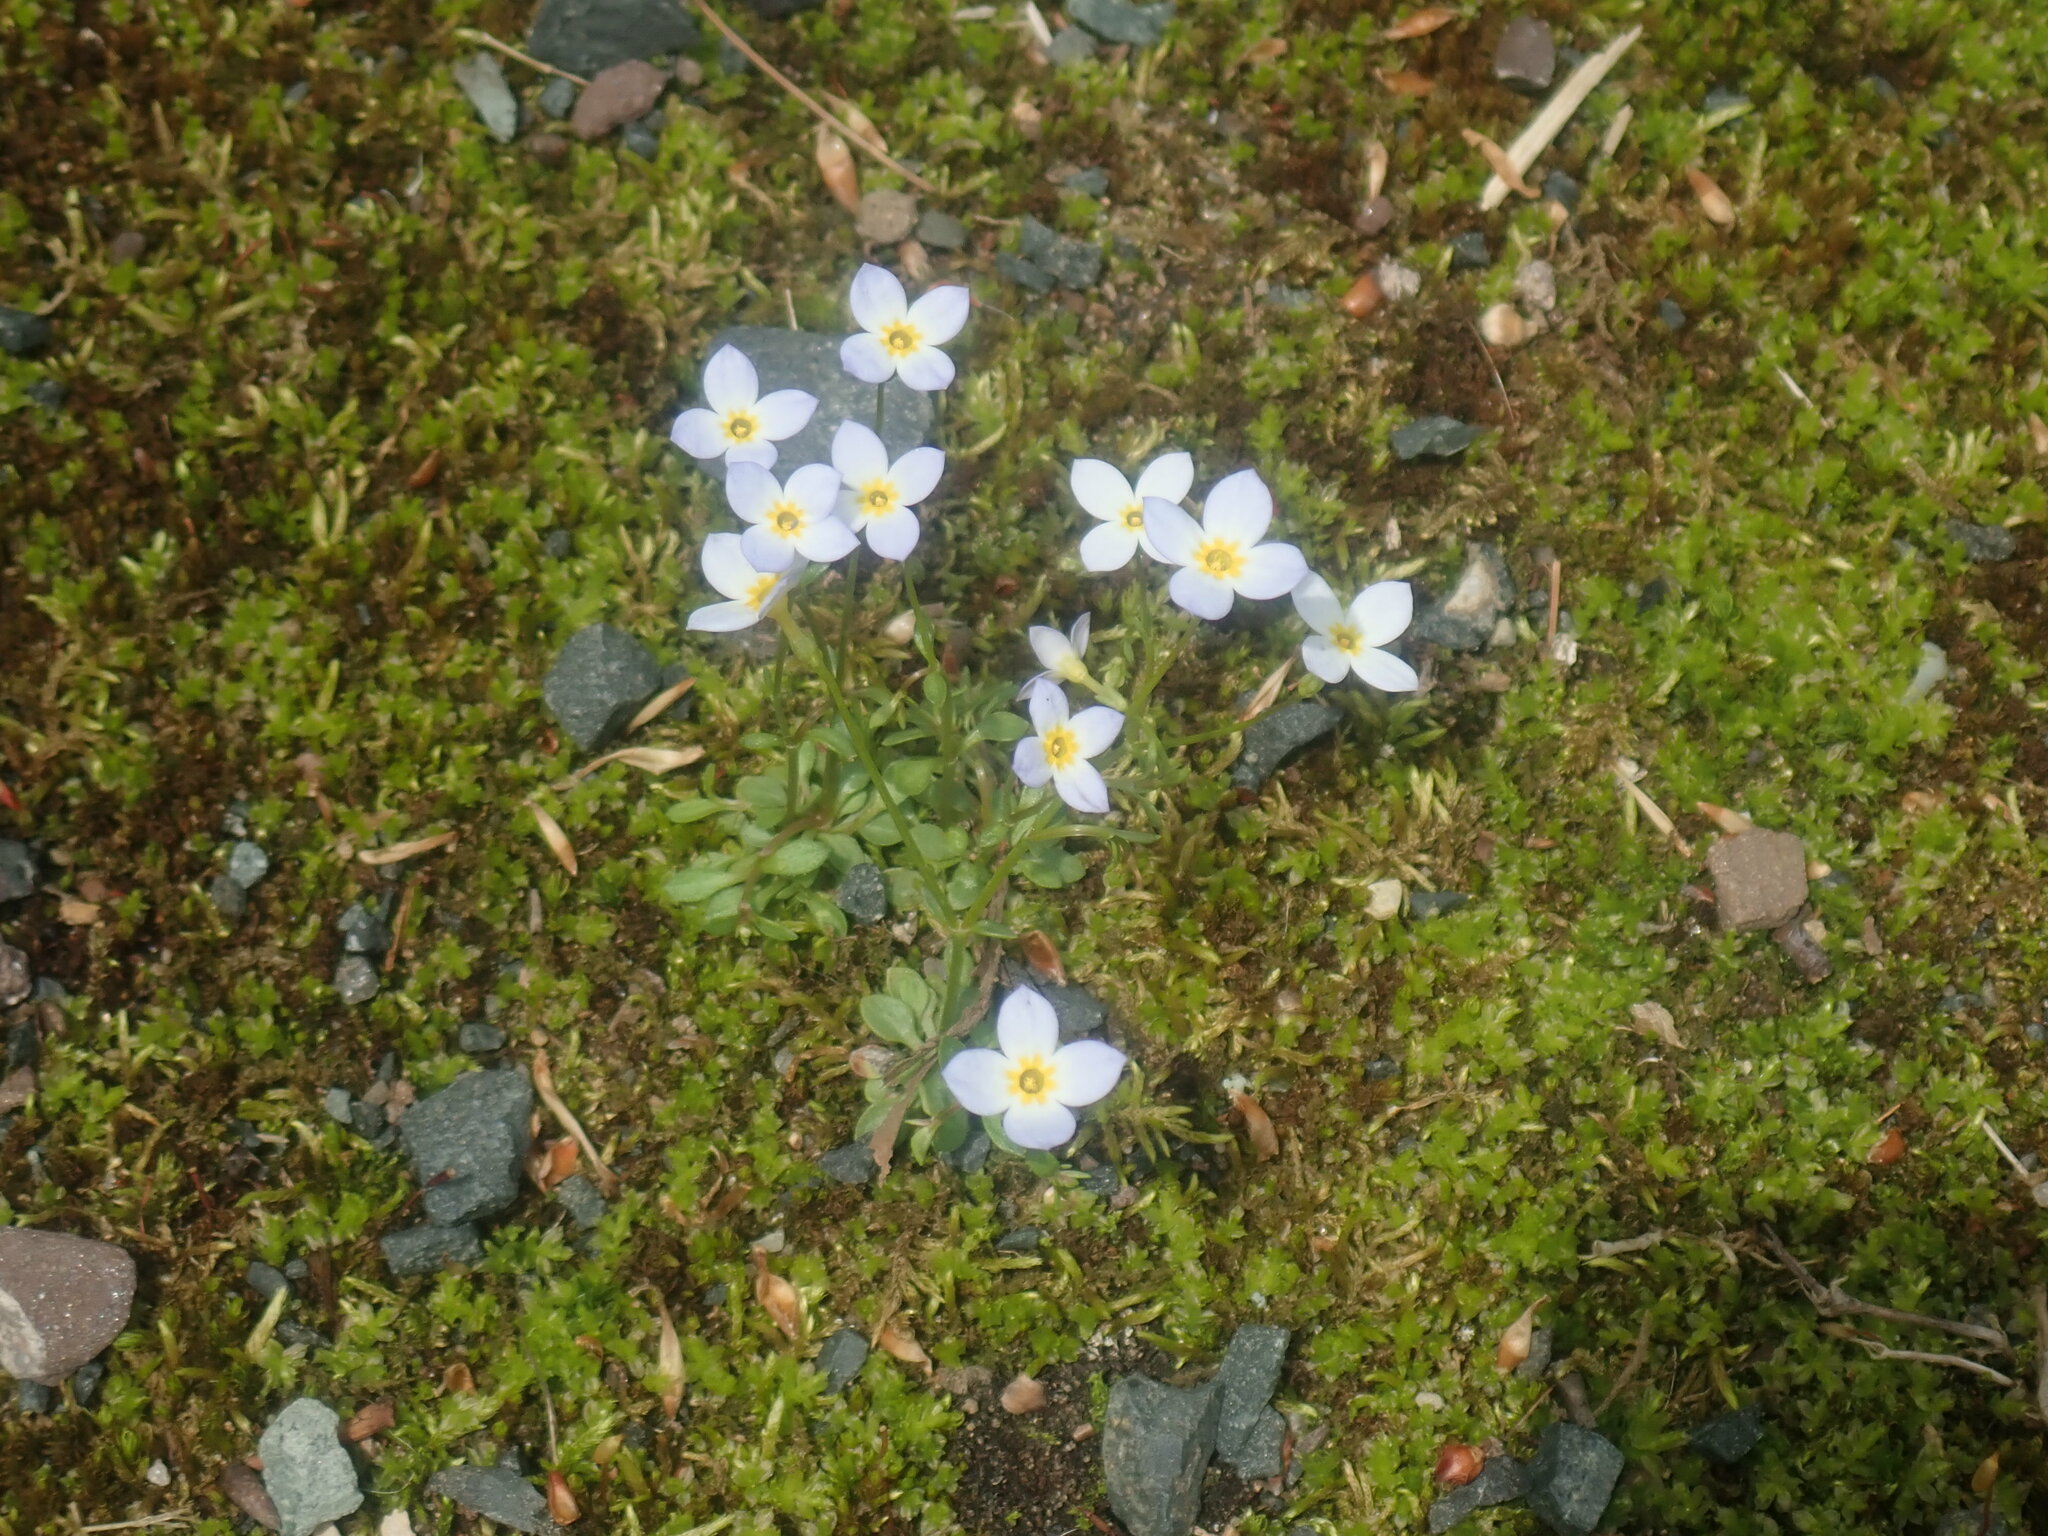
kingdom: Plantae
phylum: Tracheophyta
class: Magnoliopsida
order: Gentianales
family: Rubiaceae
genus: Houstonia
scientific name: Houstonia caerulea
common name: Bluets
